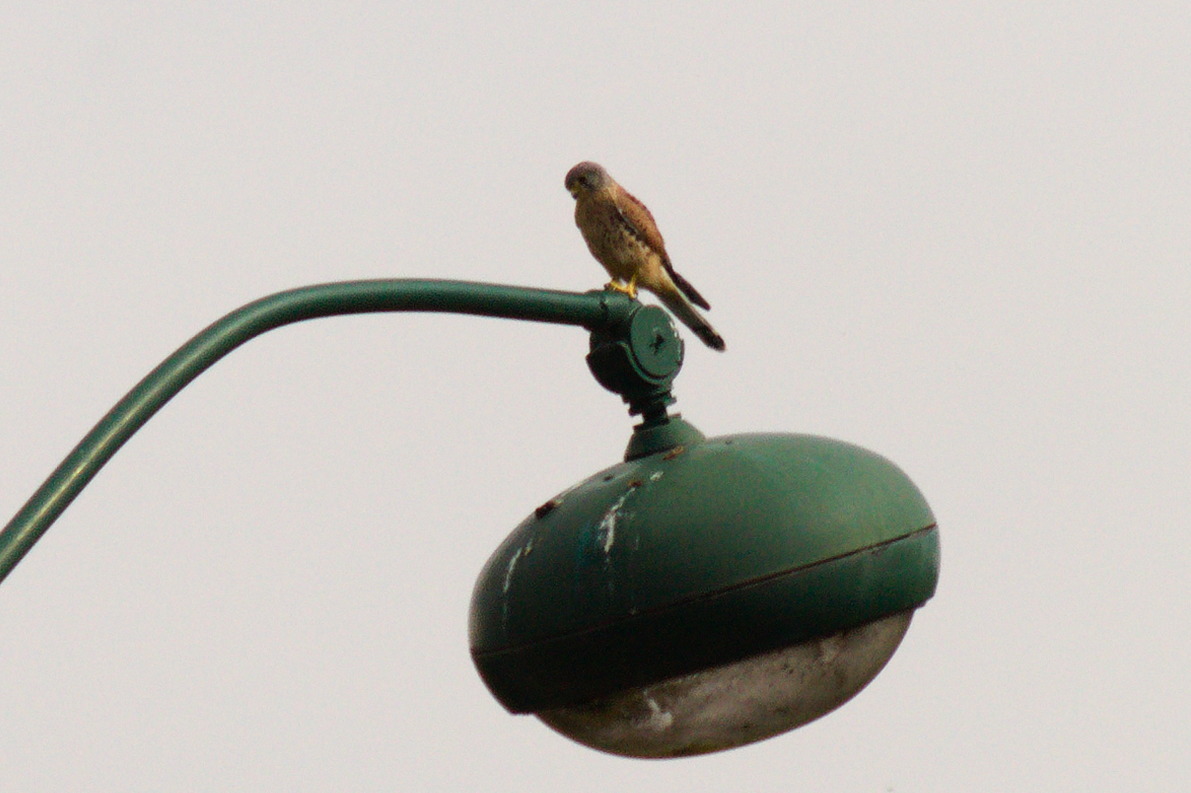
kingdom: Animalia
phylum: Chordata
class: Aves
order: Falconiformes
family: Falconidae
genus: Falco
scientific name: Falco tinnunculus
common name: Common kestrel
